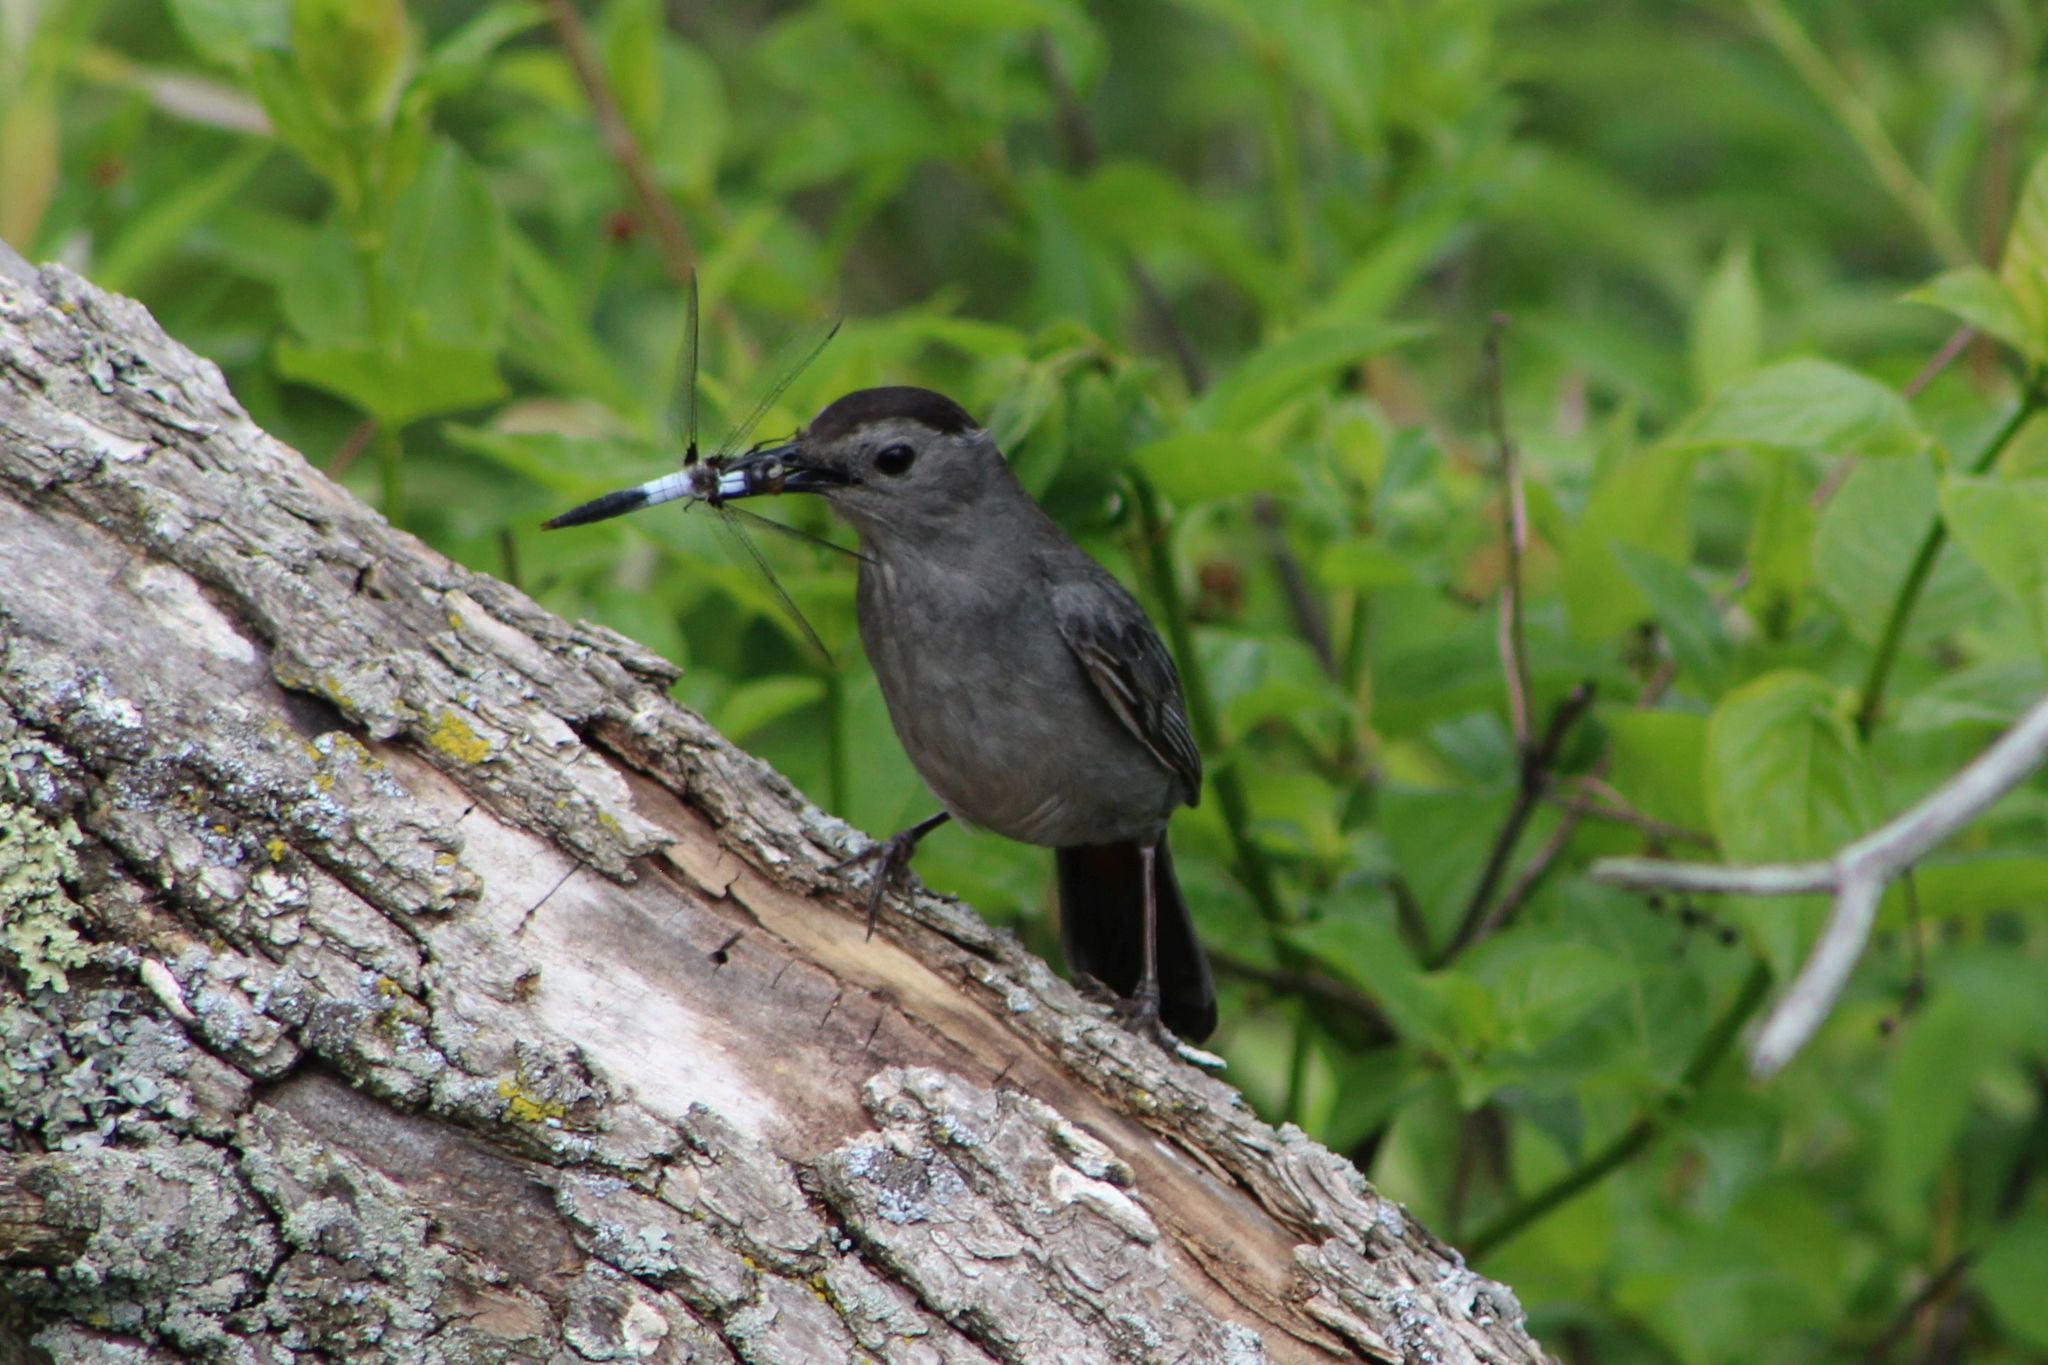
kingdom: Animalia
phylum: Chordata
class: Aves
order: Passeriformes
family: Mimidae
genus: Dumetella
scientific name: Dumetella carolinensis
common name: Gray catbird
